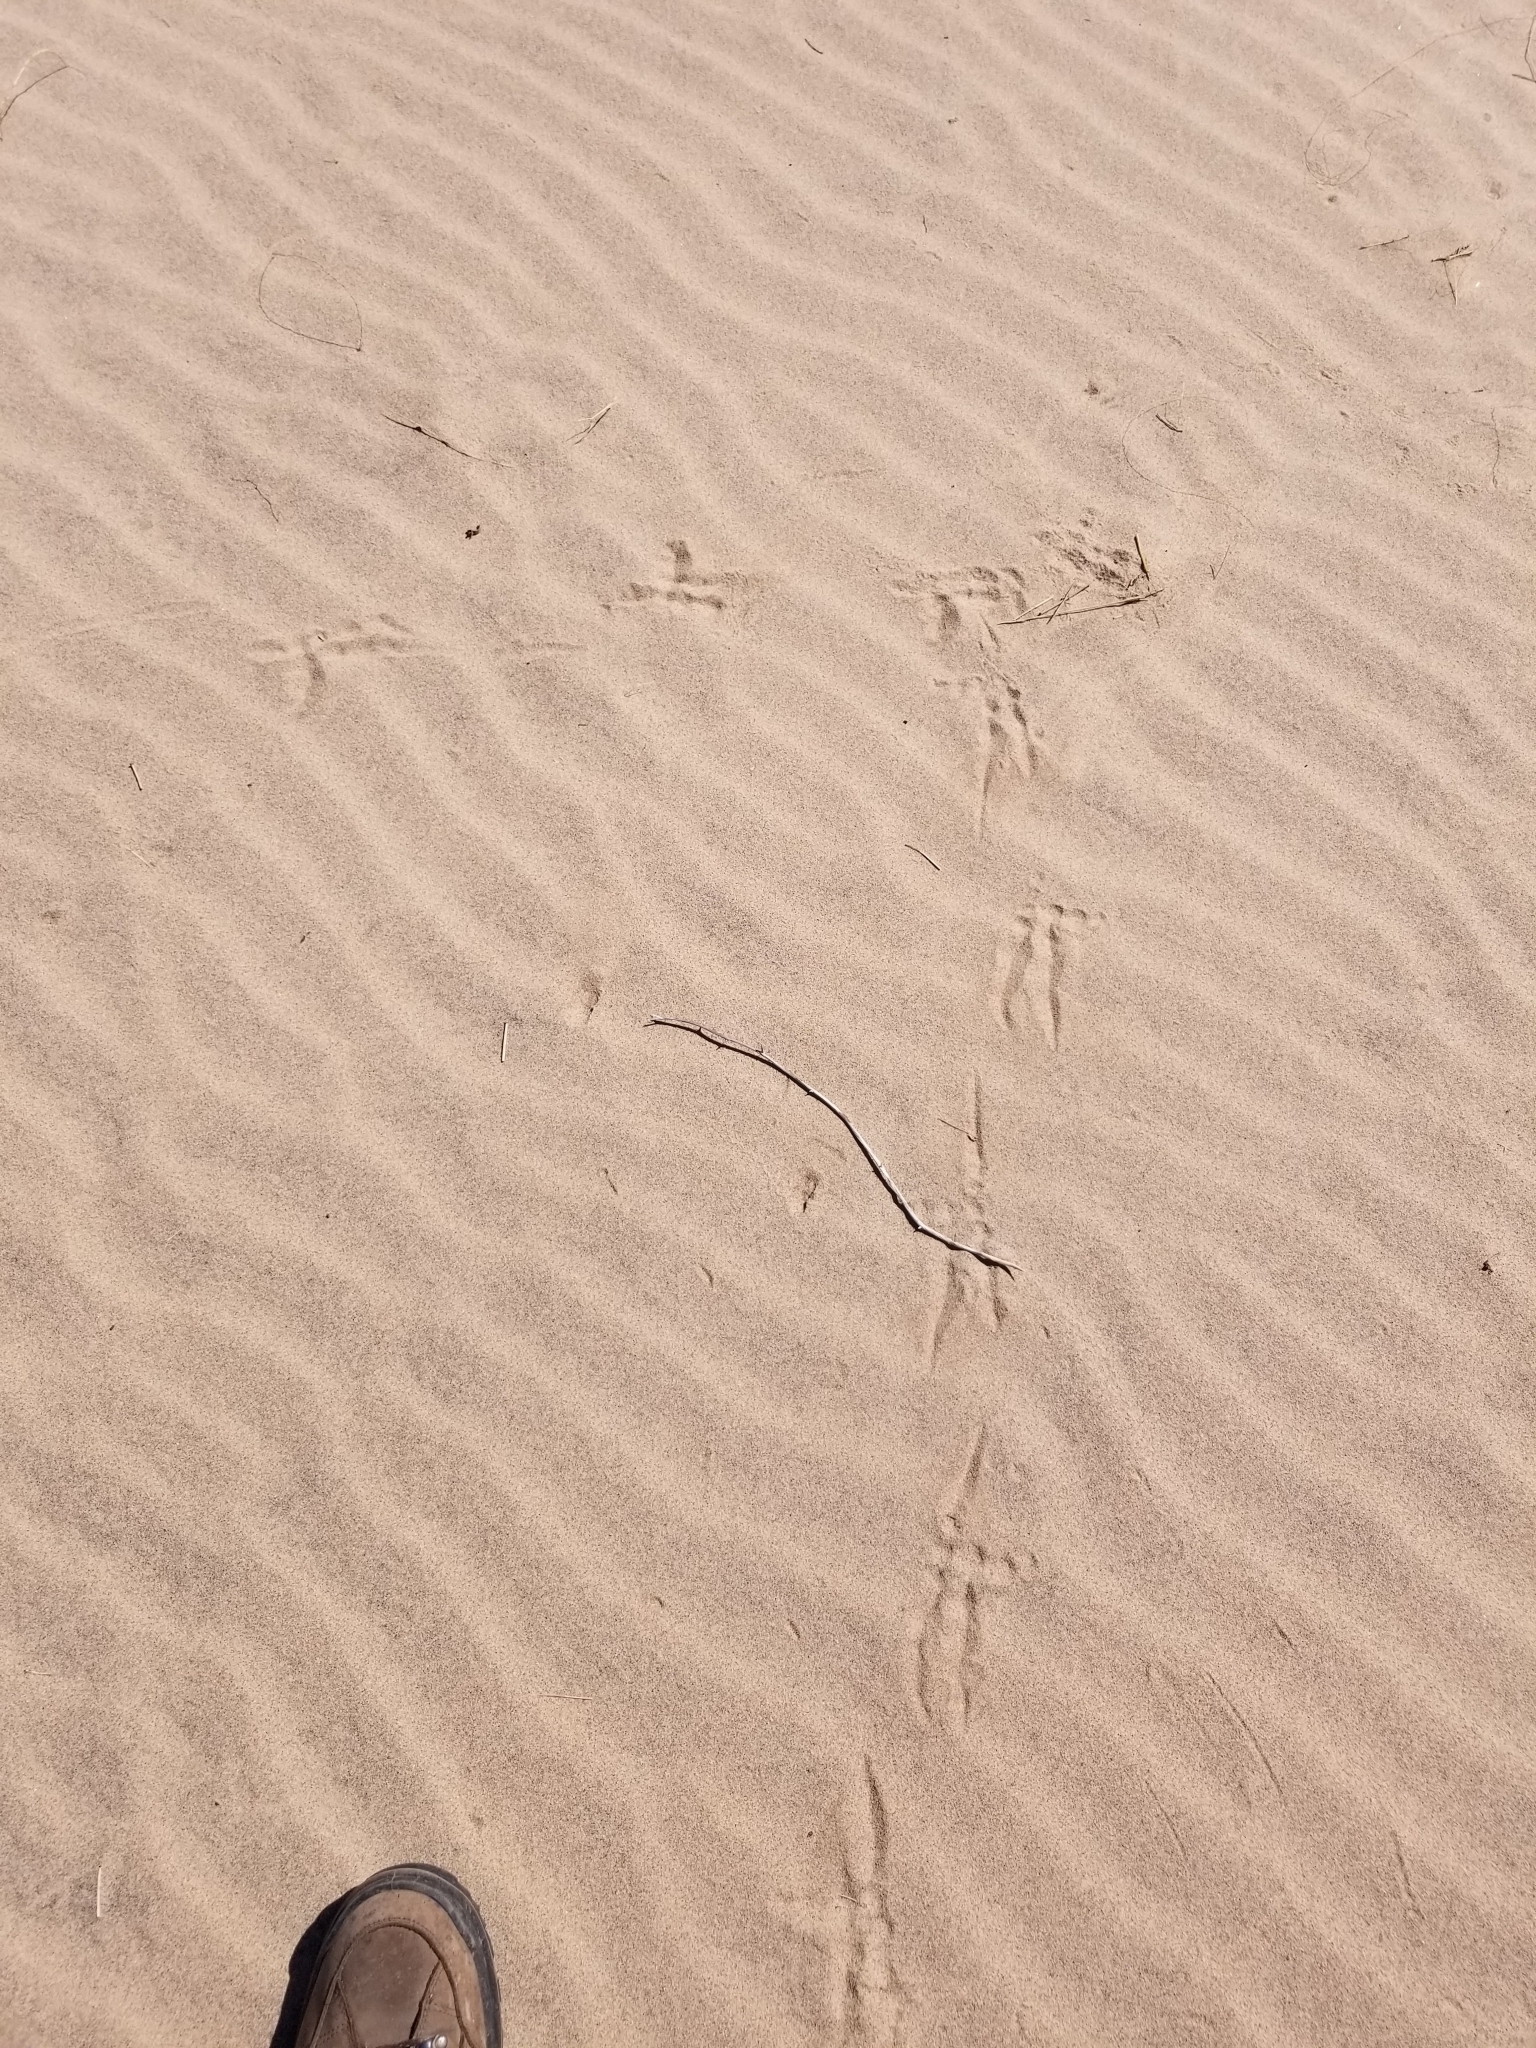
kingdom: Animalia
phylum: Chordata
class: Aves
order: Strigiformes
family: Strigidae
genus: Bubo
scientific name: Bubo virginianus
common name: Great horned owl
